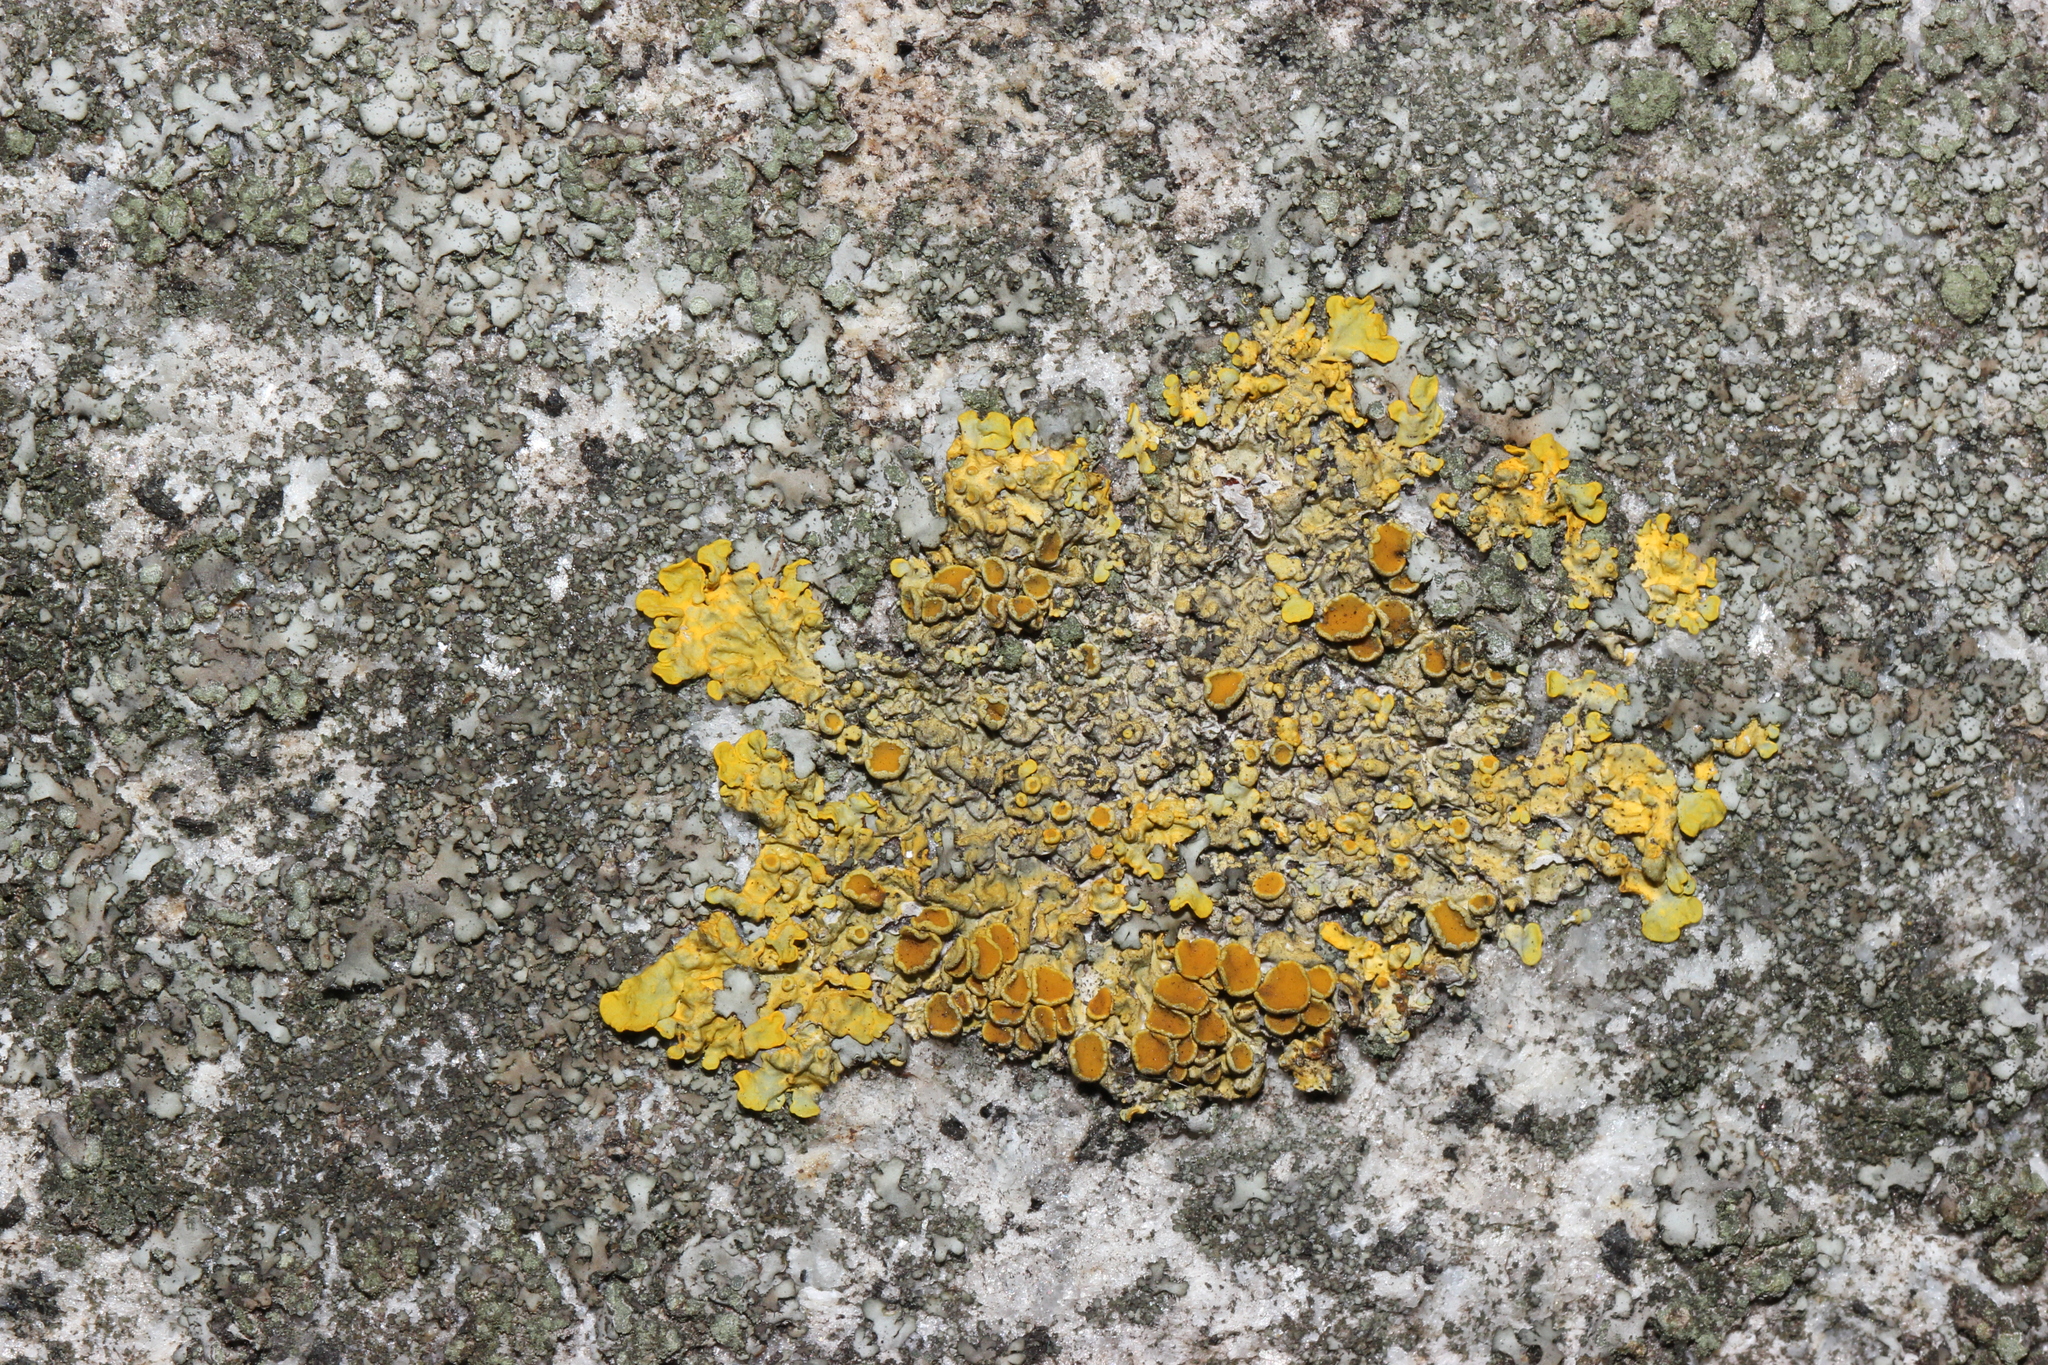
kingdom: Fungi
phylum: Ascomycota
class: Lecanoromycetes
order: Teloschistales
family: Teloschistaceae
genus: Xanthoria
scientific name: Xanthoria parietina
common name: Common orange lichen
